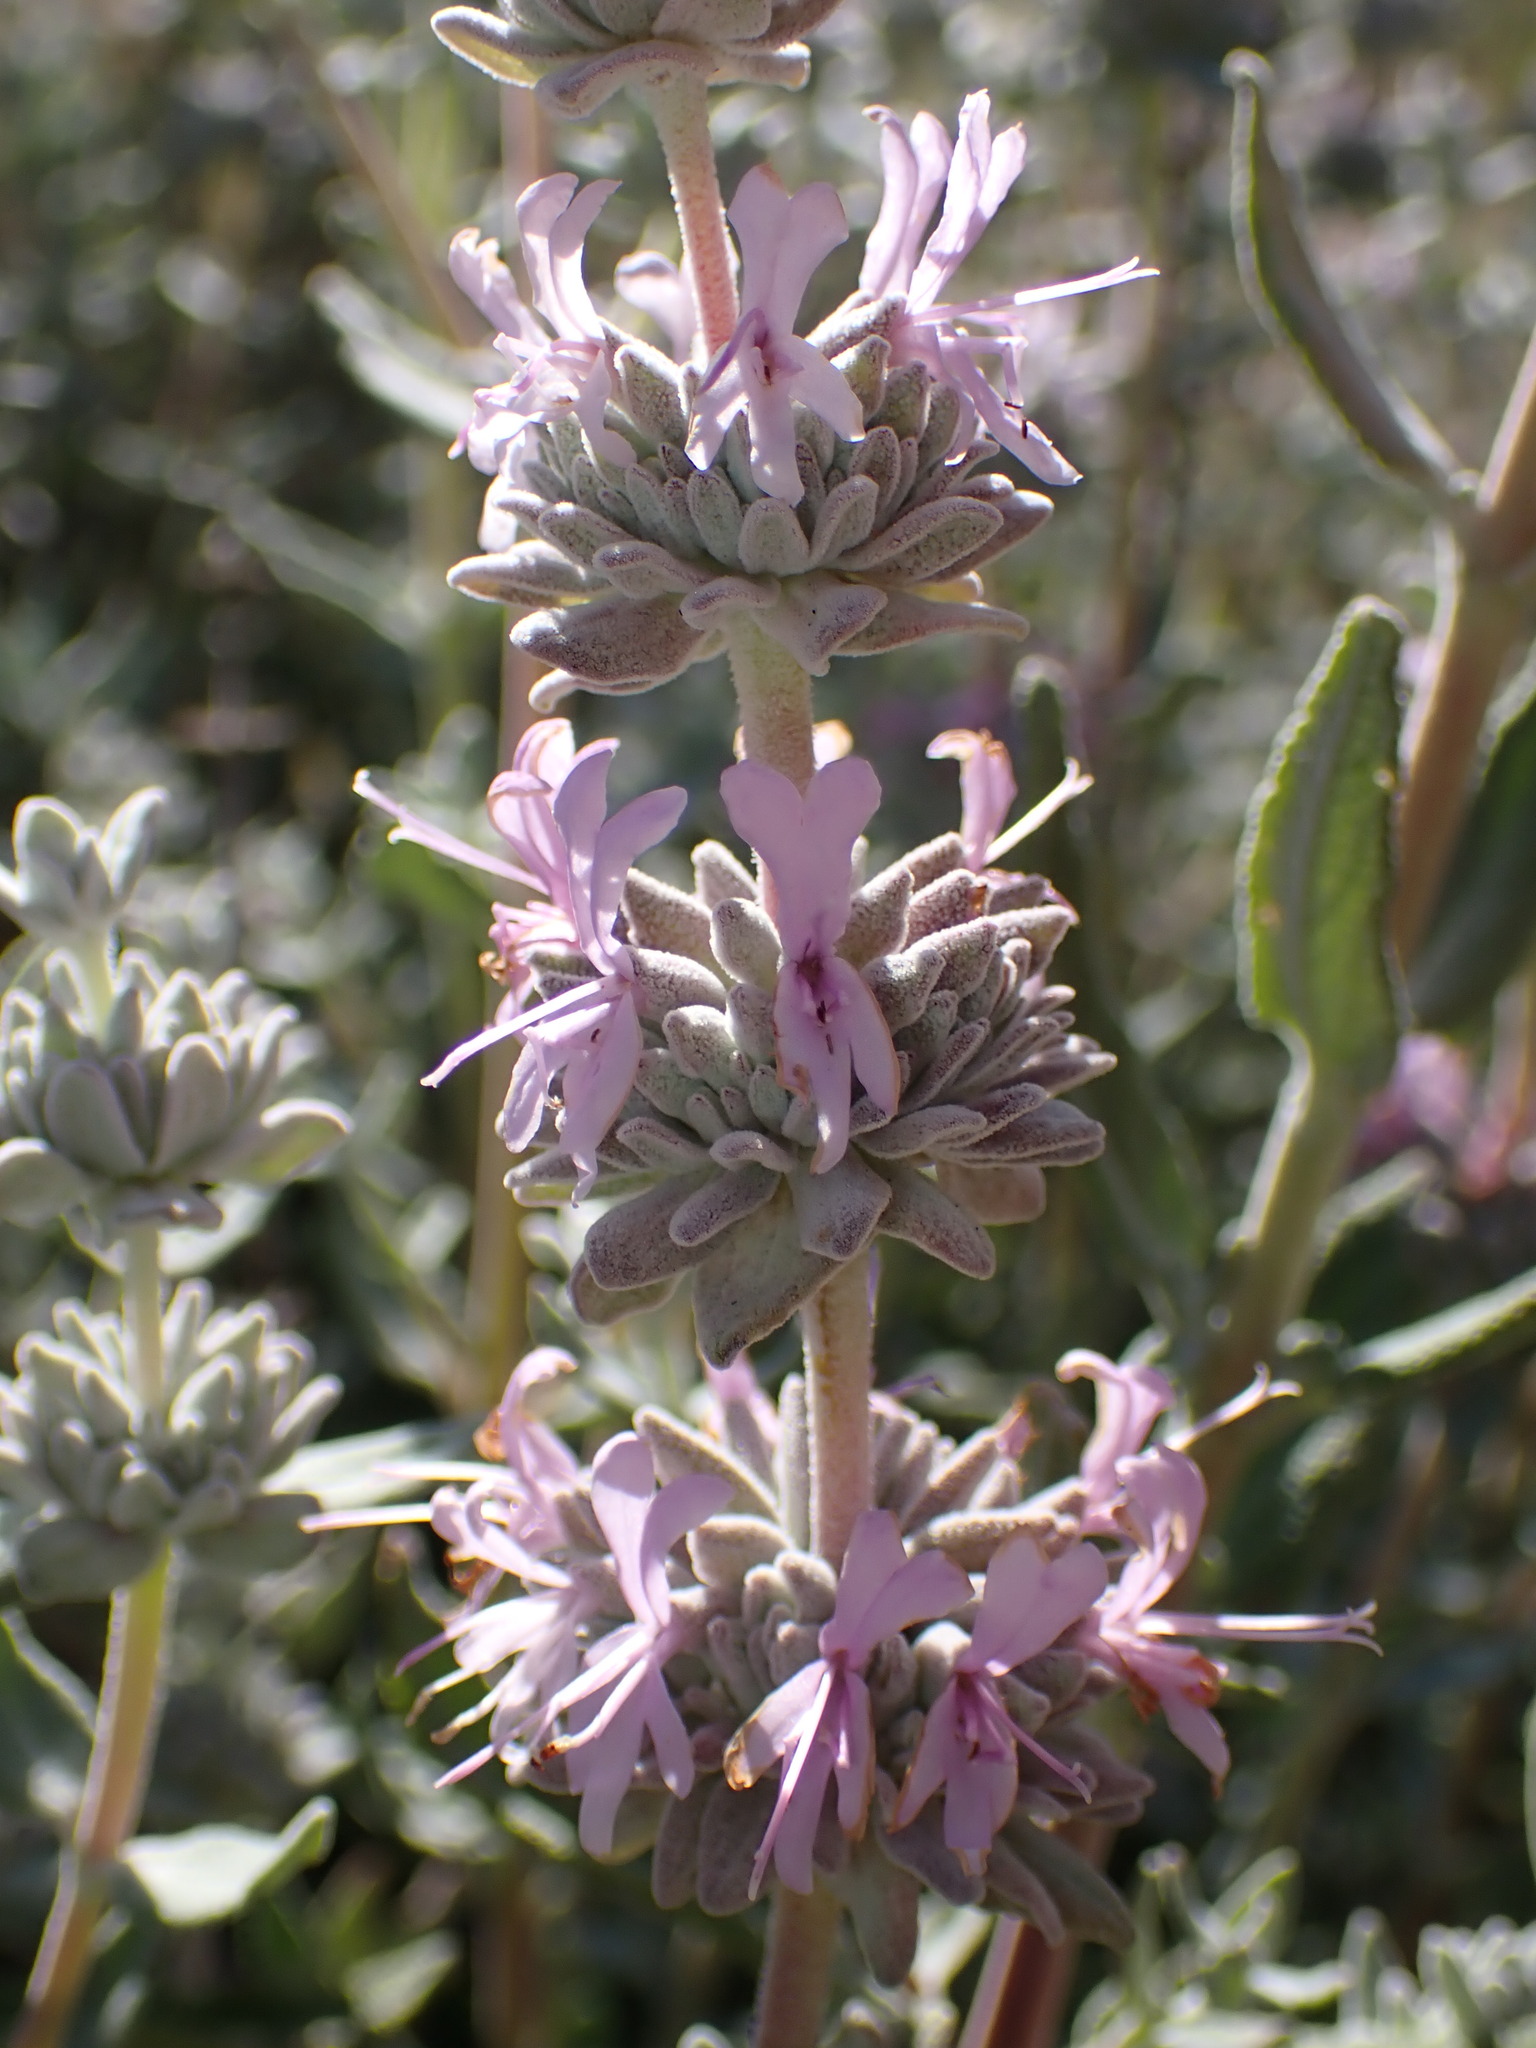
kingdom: Plantae
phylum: Tracheophyta
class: Magnoliopsida
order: Lamiales
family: Lamiaceae
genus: Salvia
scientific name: Salvia leucophylla
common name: Purple sage
